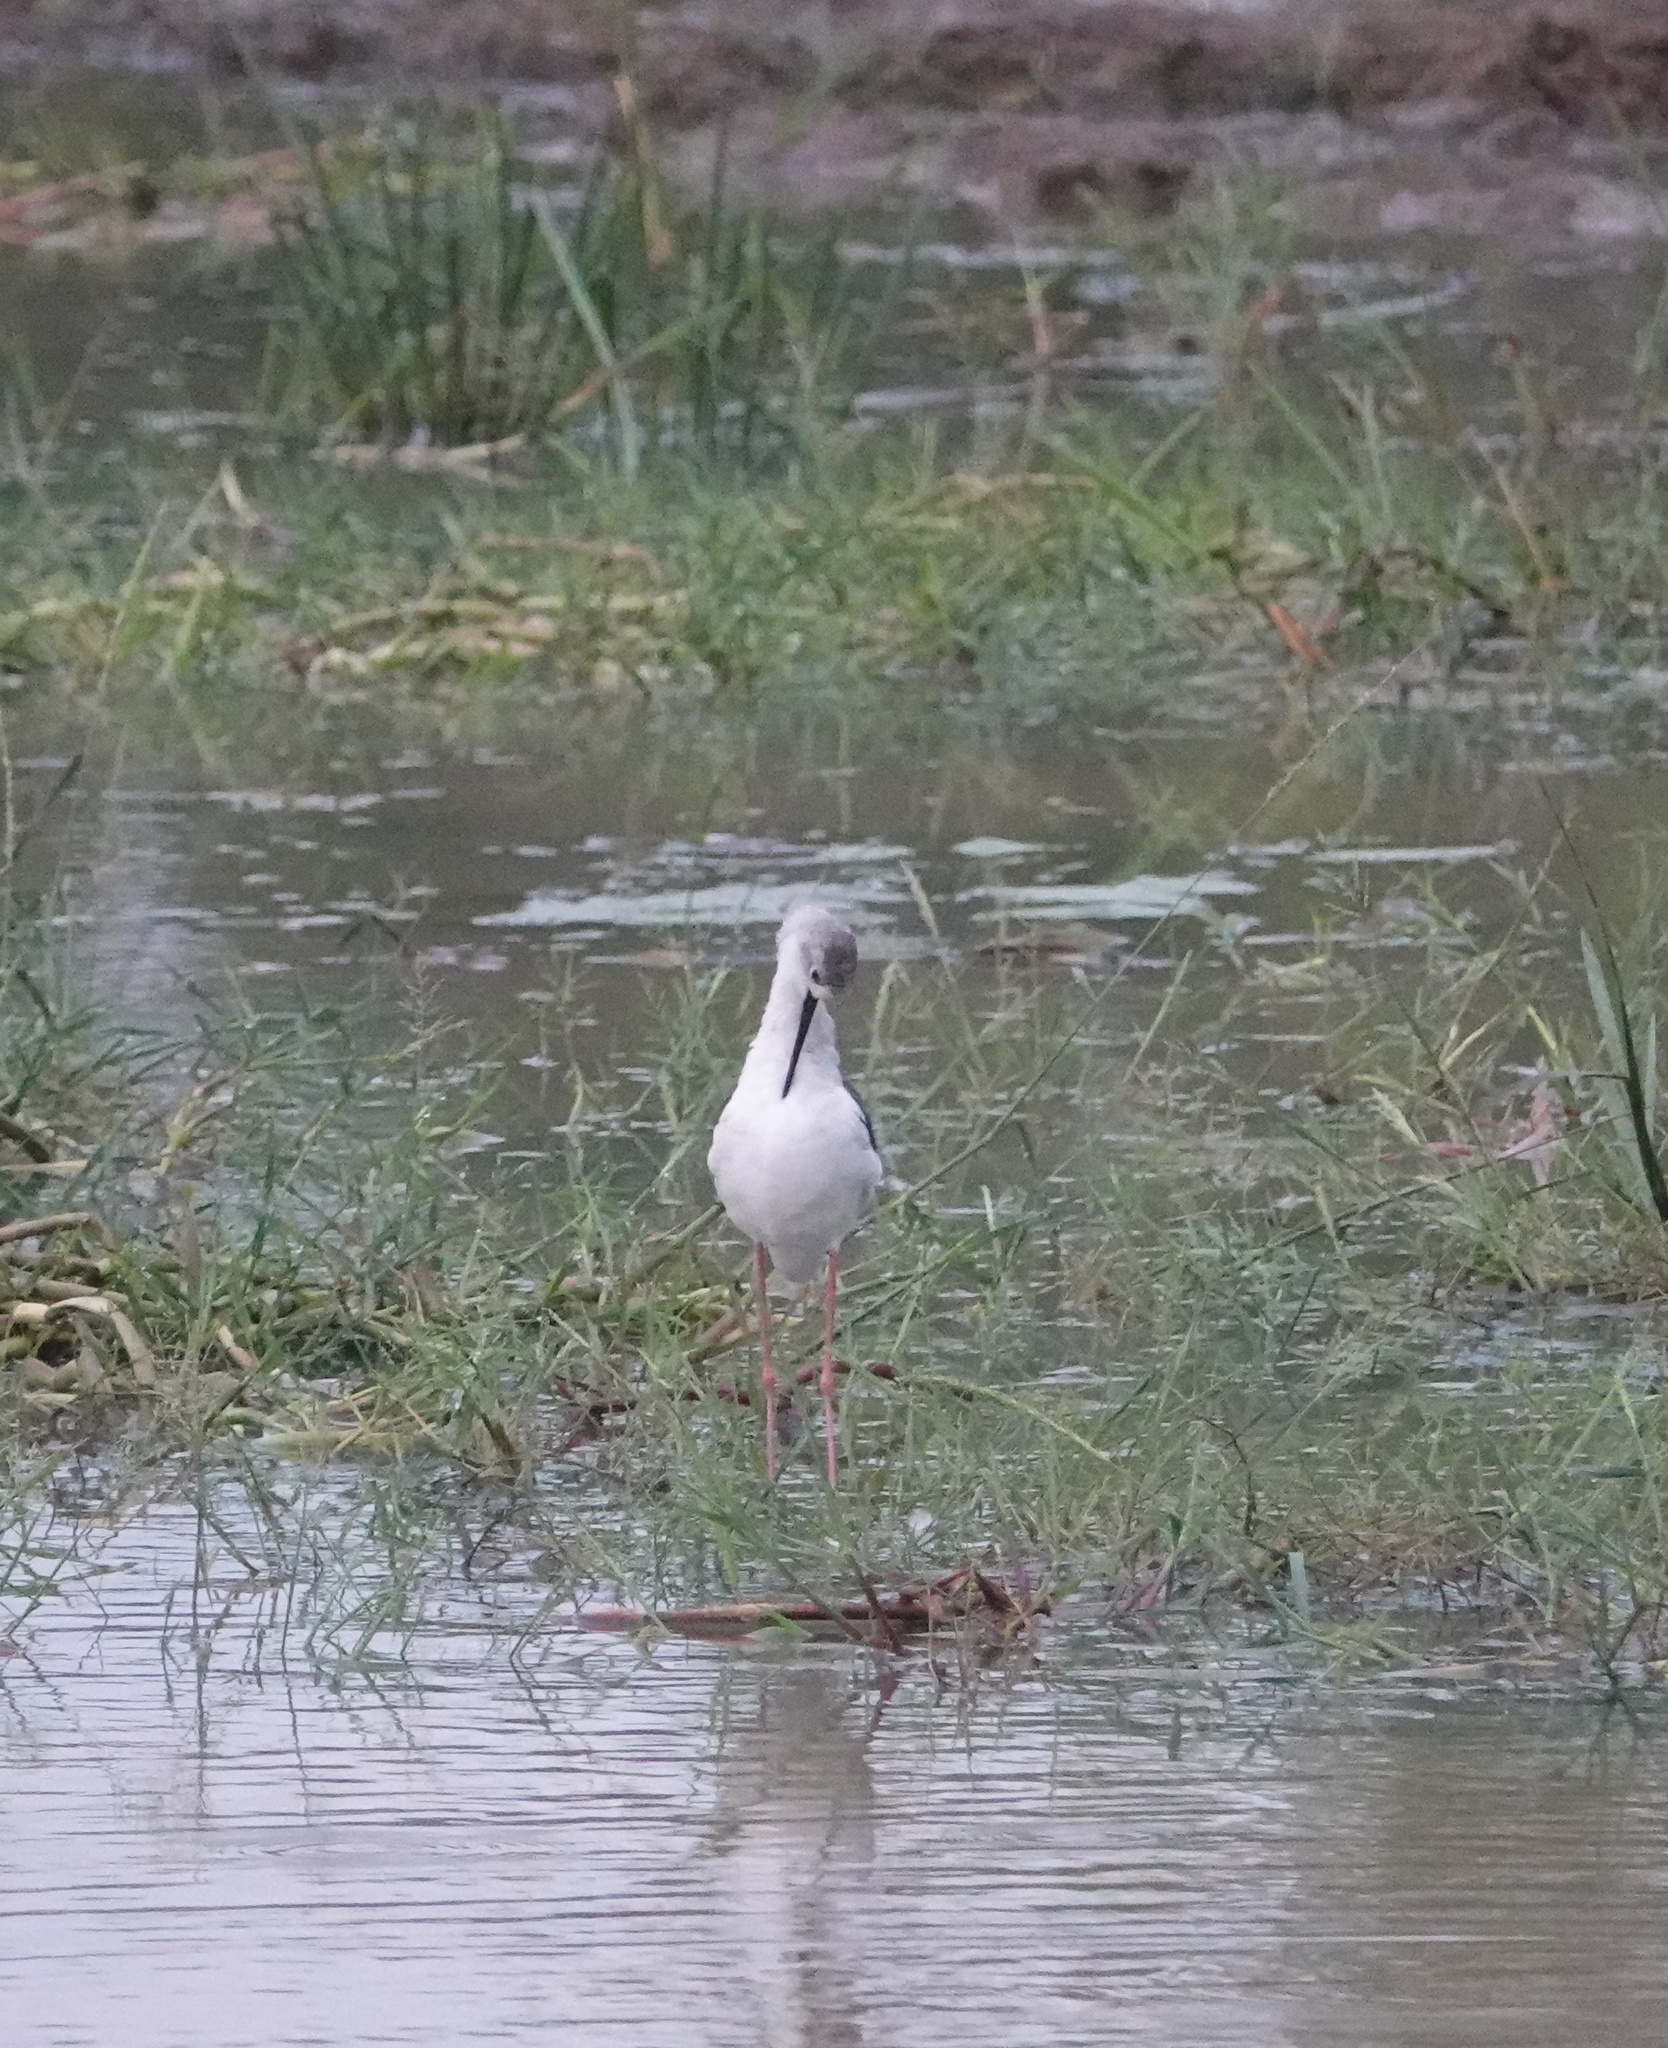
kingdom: Animalia
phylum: Chordata
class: Aves
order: Charadriiformes
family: Recurvirostridae
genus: Himantopus
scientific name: Himantopus himantopus
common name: Black-winged stilt
